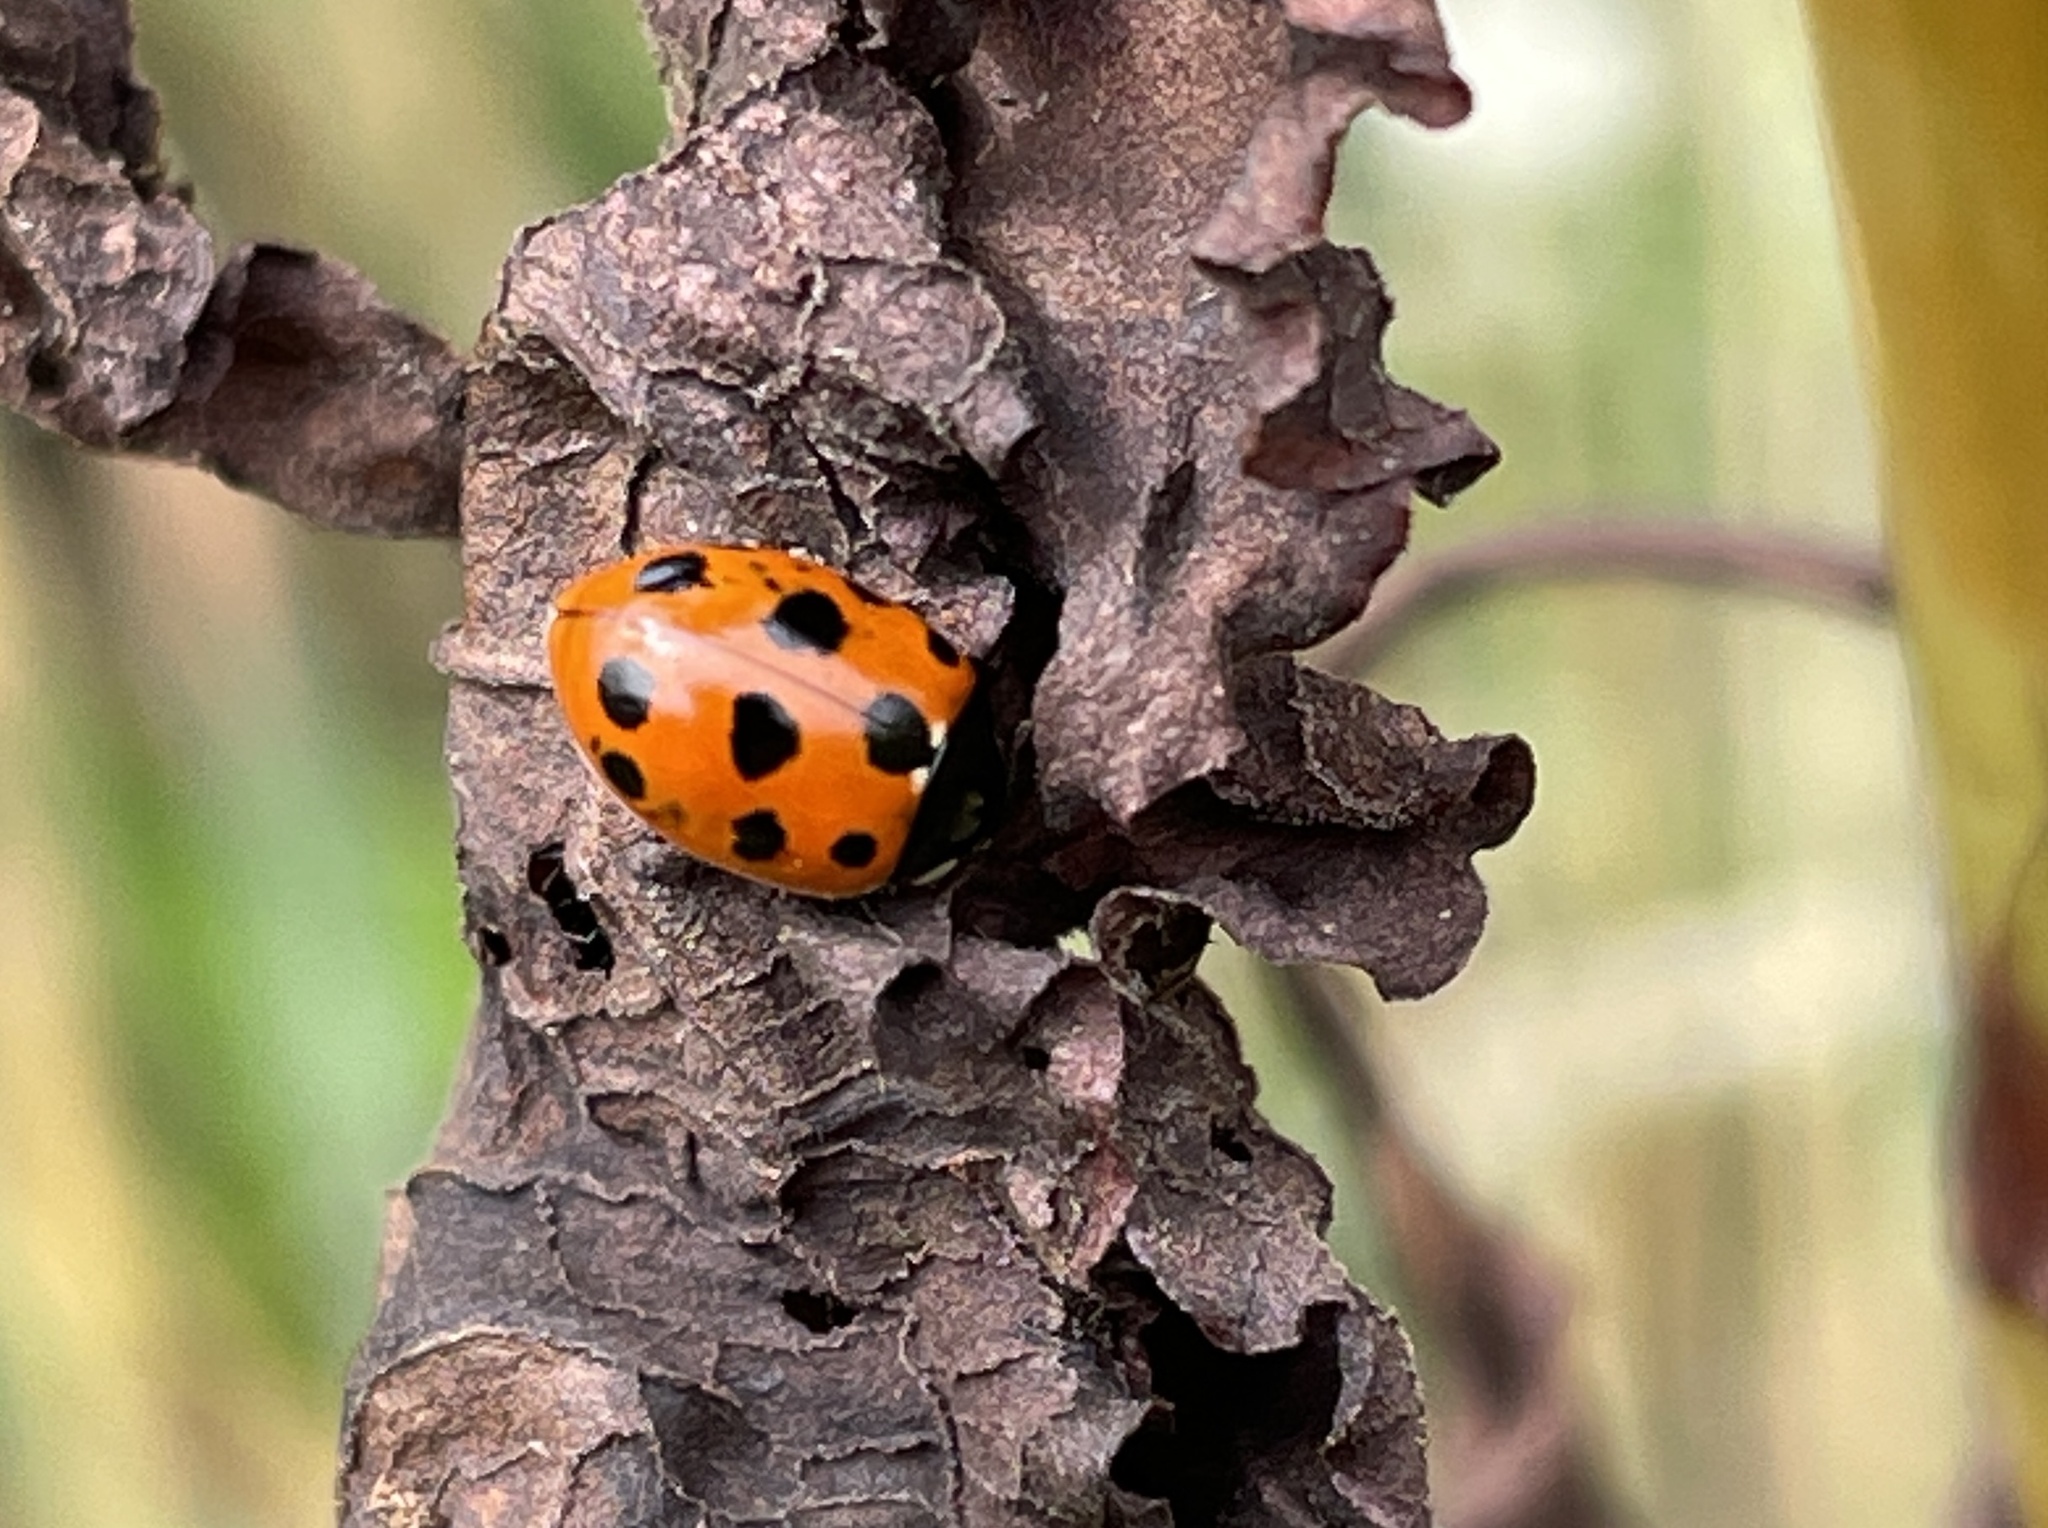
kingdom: Animalia
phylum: Arthropoda
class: Insecta
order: Coleoptera
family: Coccinellidae
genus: Coccinella
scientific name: Coccinella undecimpunctata
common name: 11-spot ladybird
